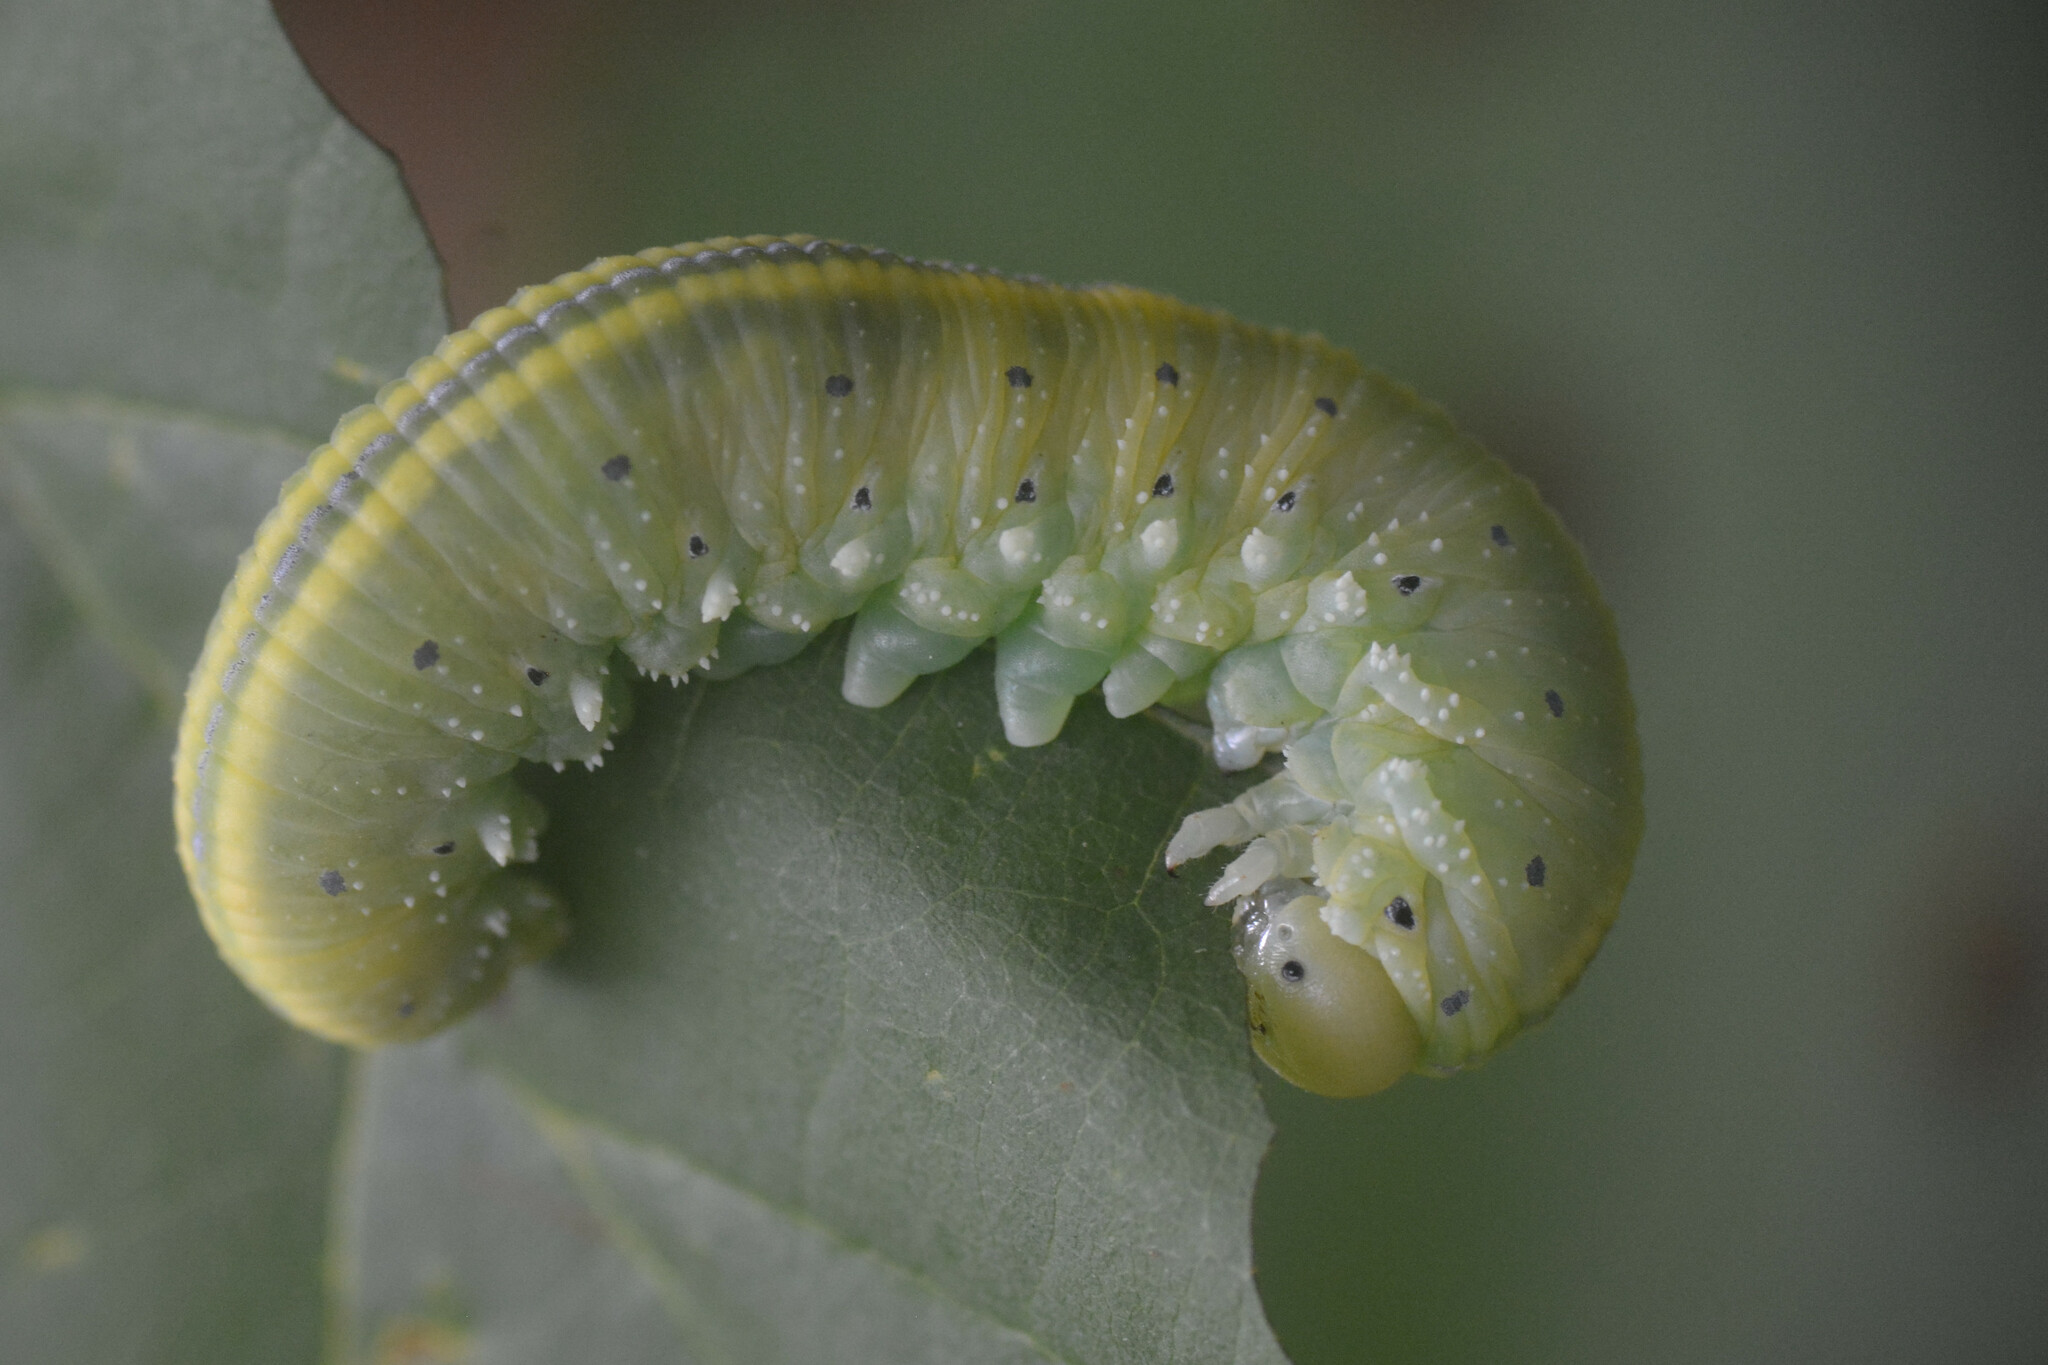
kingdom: Animalia
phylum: Arthropoda
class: Insecta
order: Hymenoptera
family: Cimbicidae
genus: Cimbex
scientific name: Cimbex connatus
